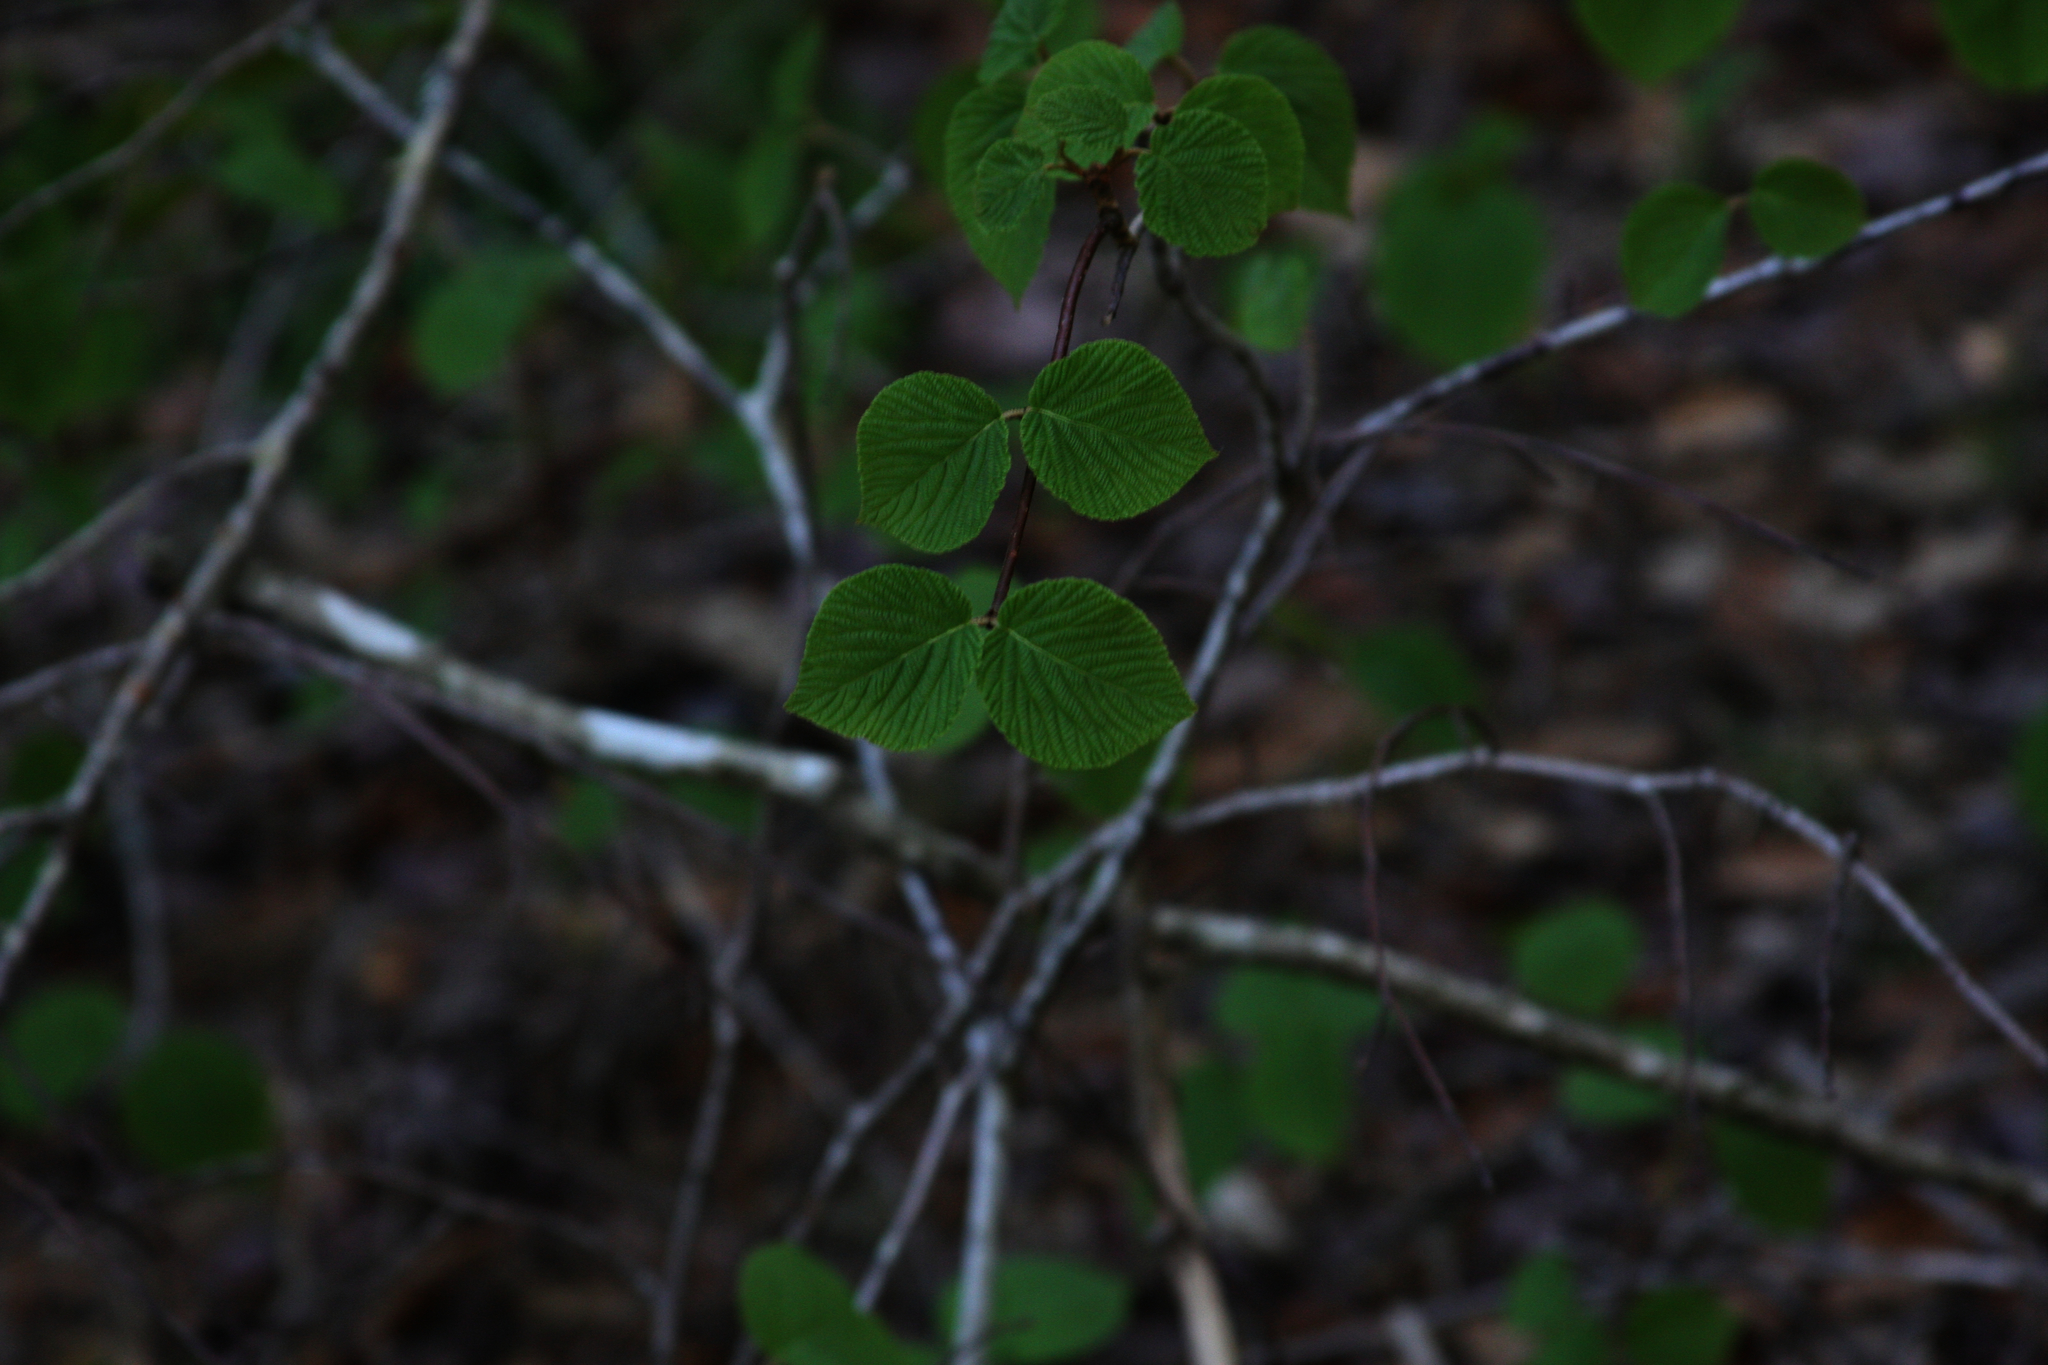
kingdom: Plantae
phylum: Tracheophyta
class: Magnoliopsida
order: Dipsacales
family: Viburnaceae
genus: Viburnum
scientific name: Viburnum lantanoides
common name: Hobblebush
